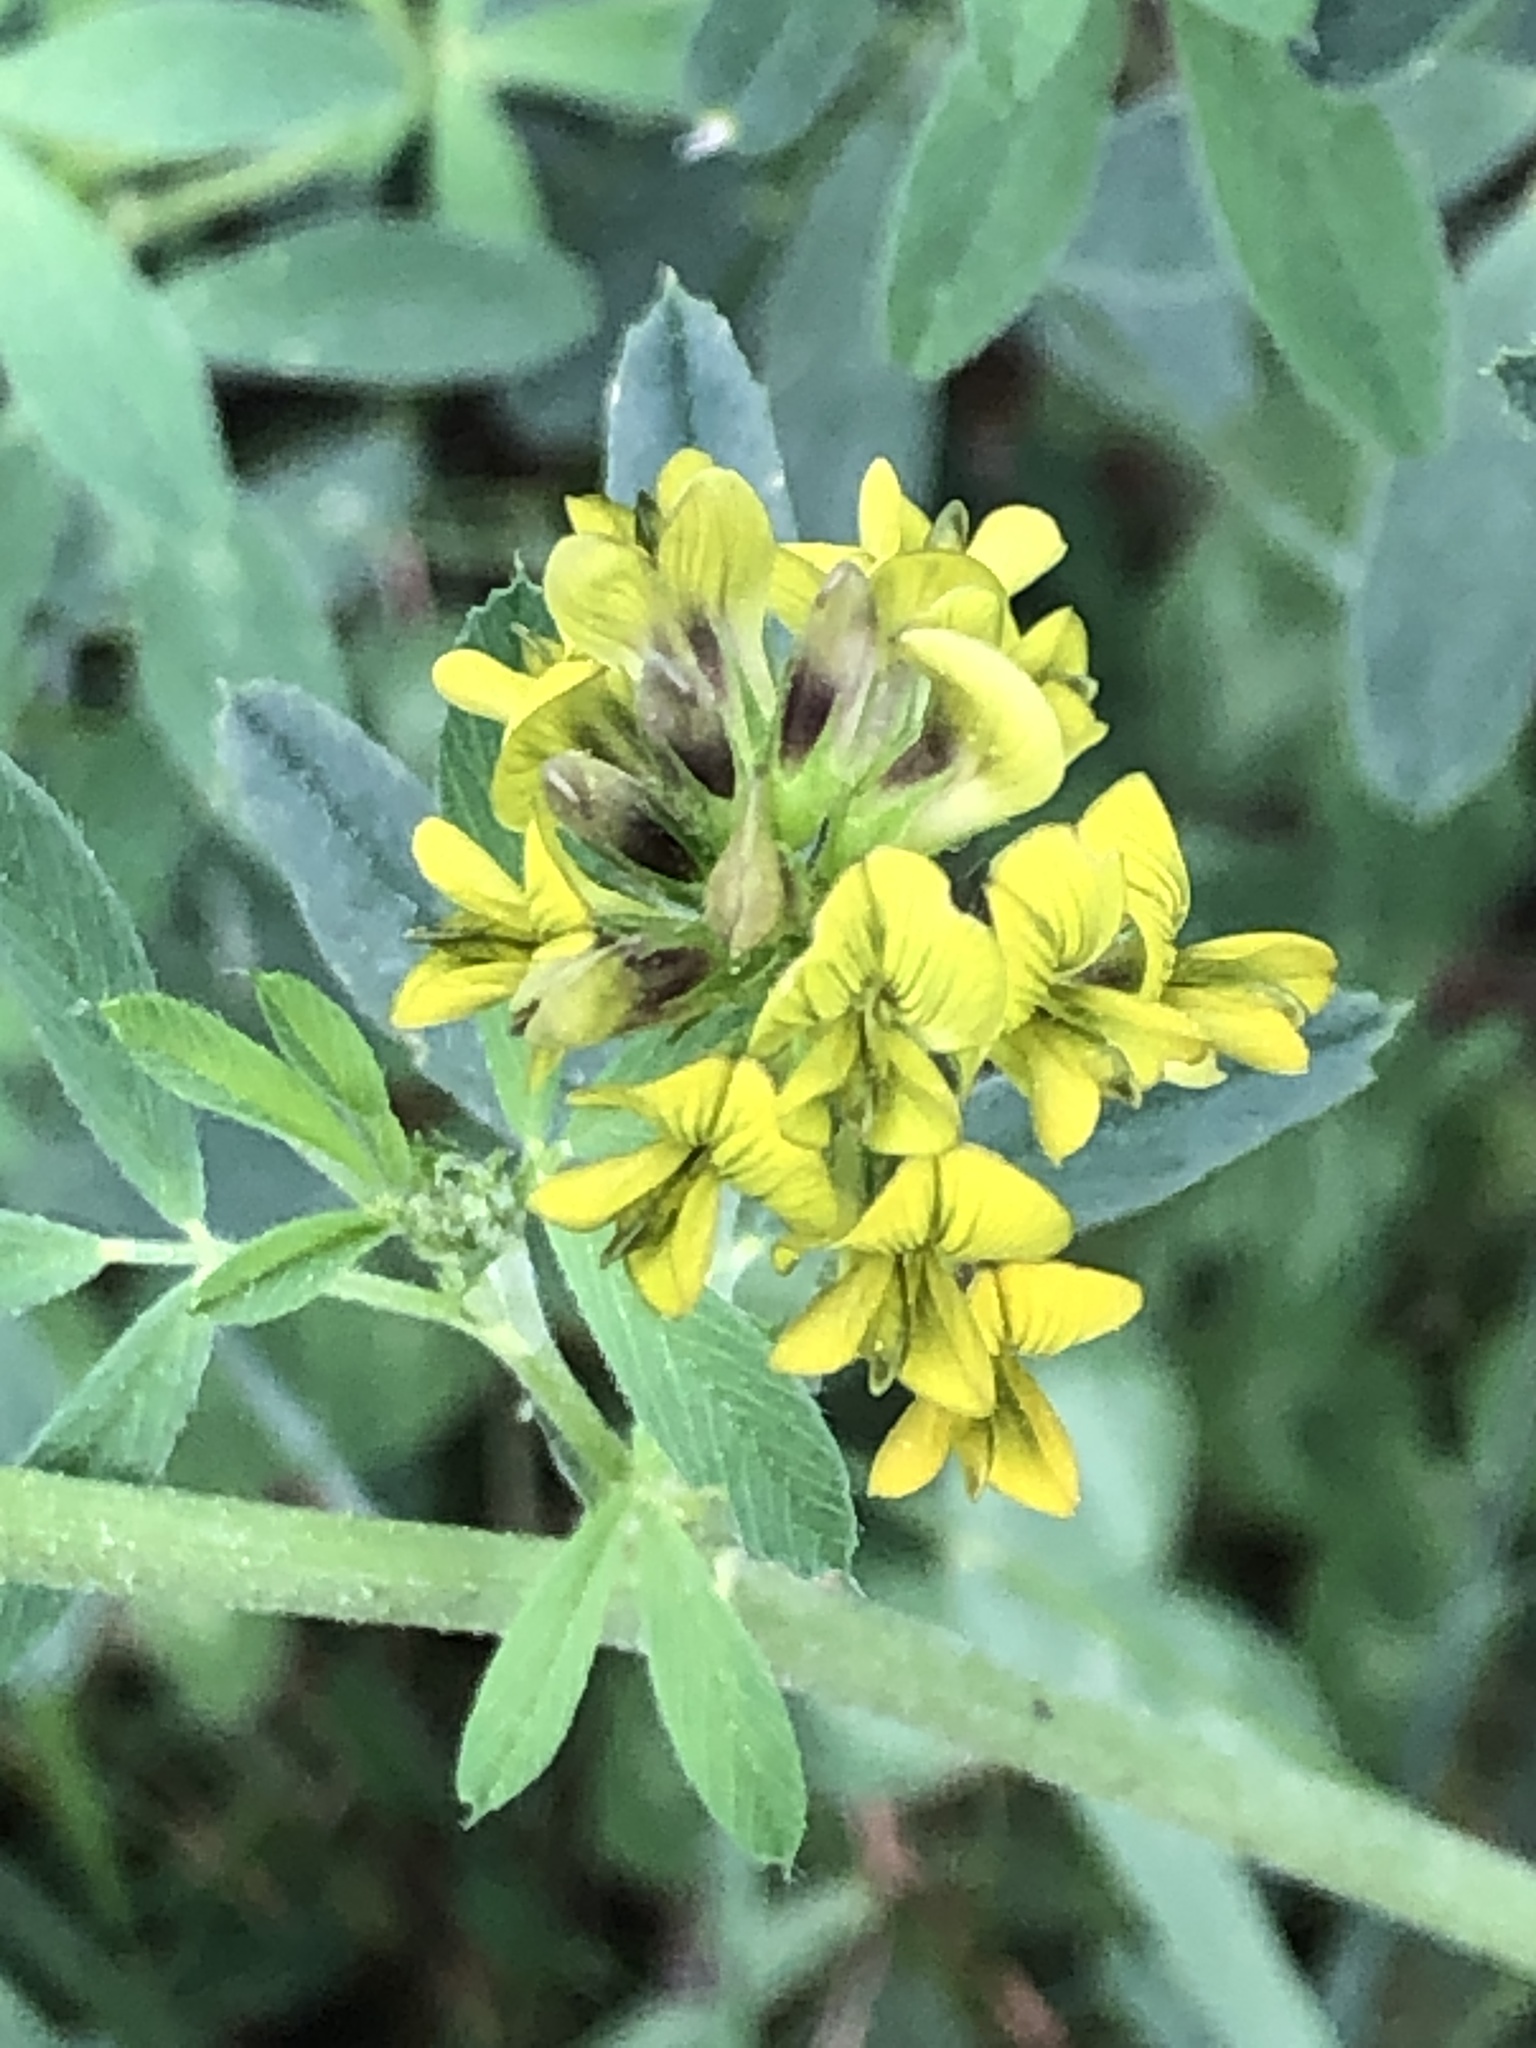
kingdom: Plantae
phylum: Tracheophyta
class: Magnoliopsida
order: Fabales
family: Fabaceae
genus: Medicago
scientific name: Medicago varia
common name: Sand lucerne
